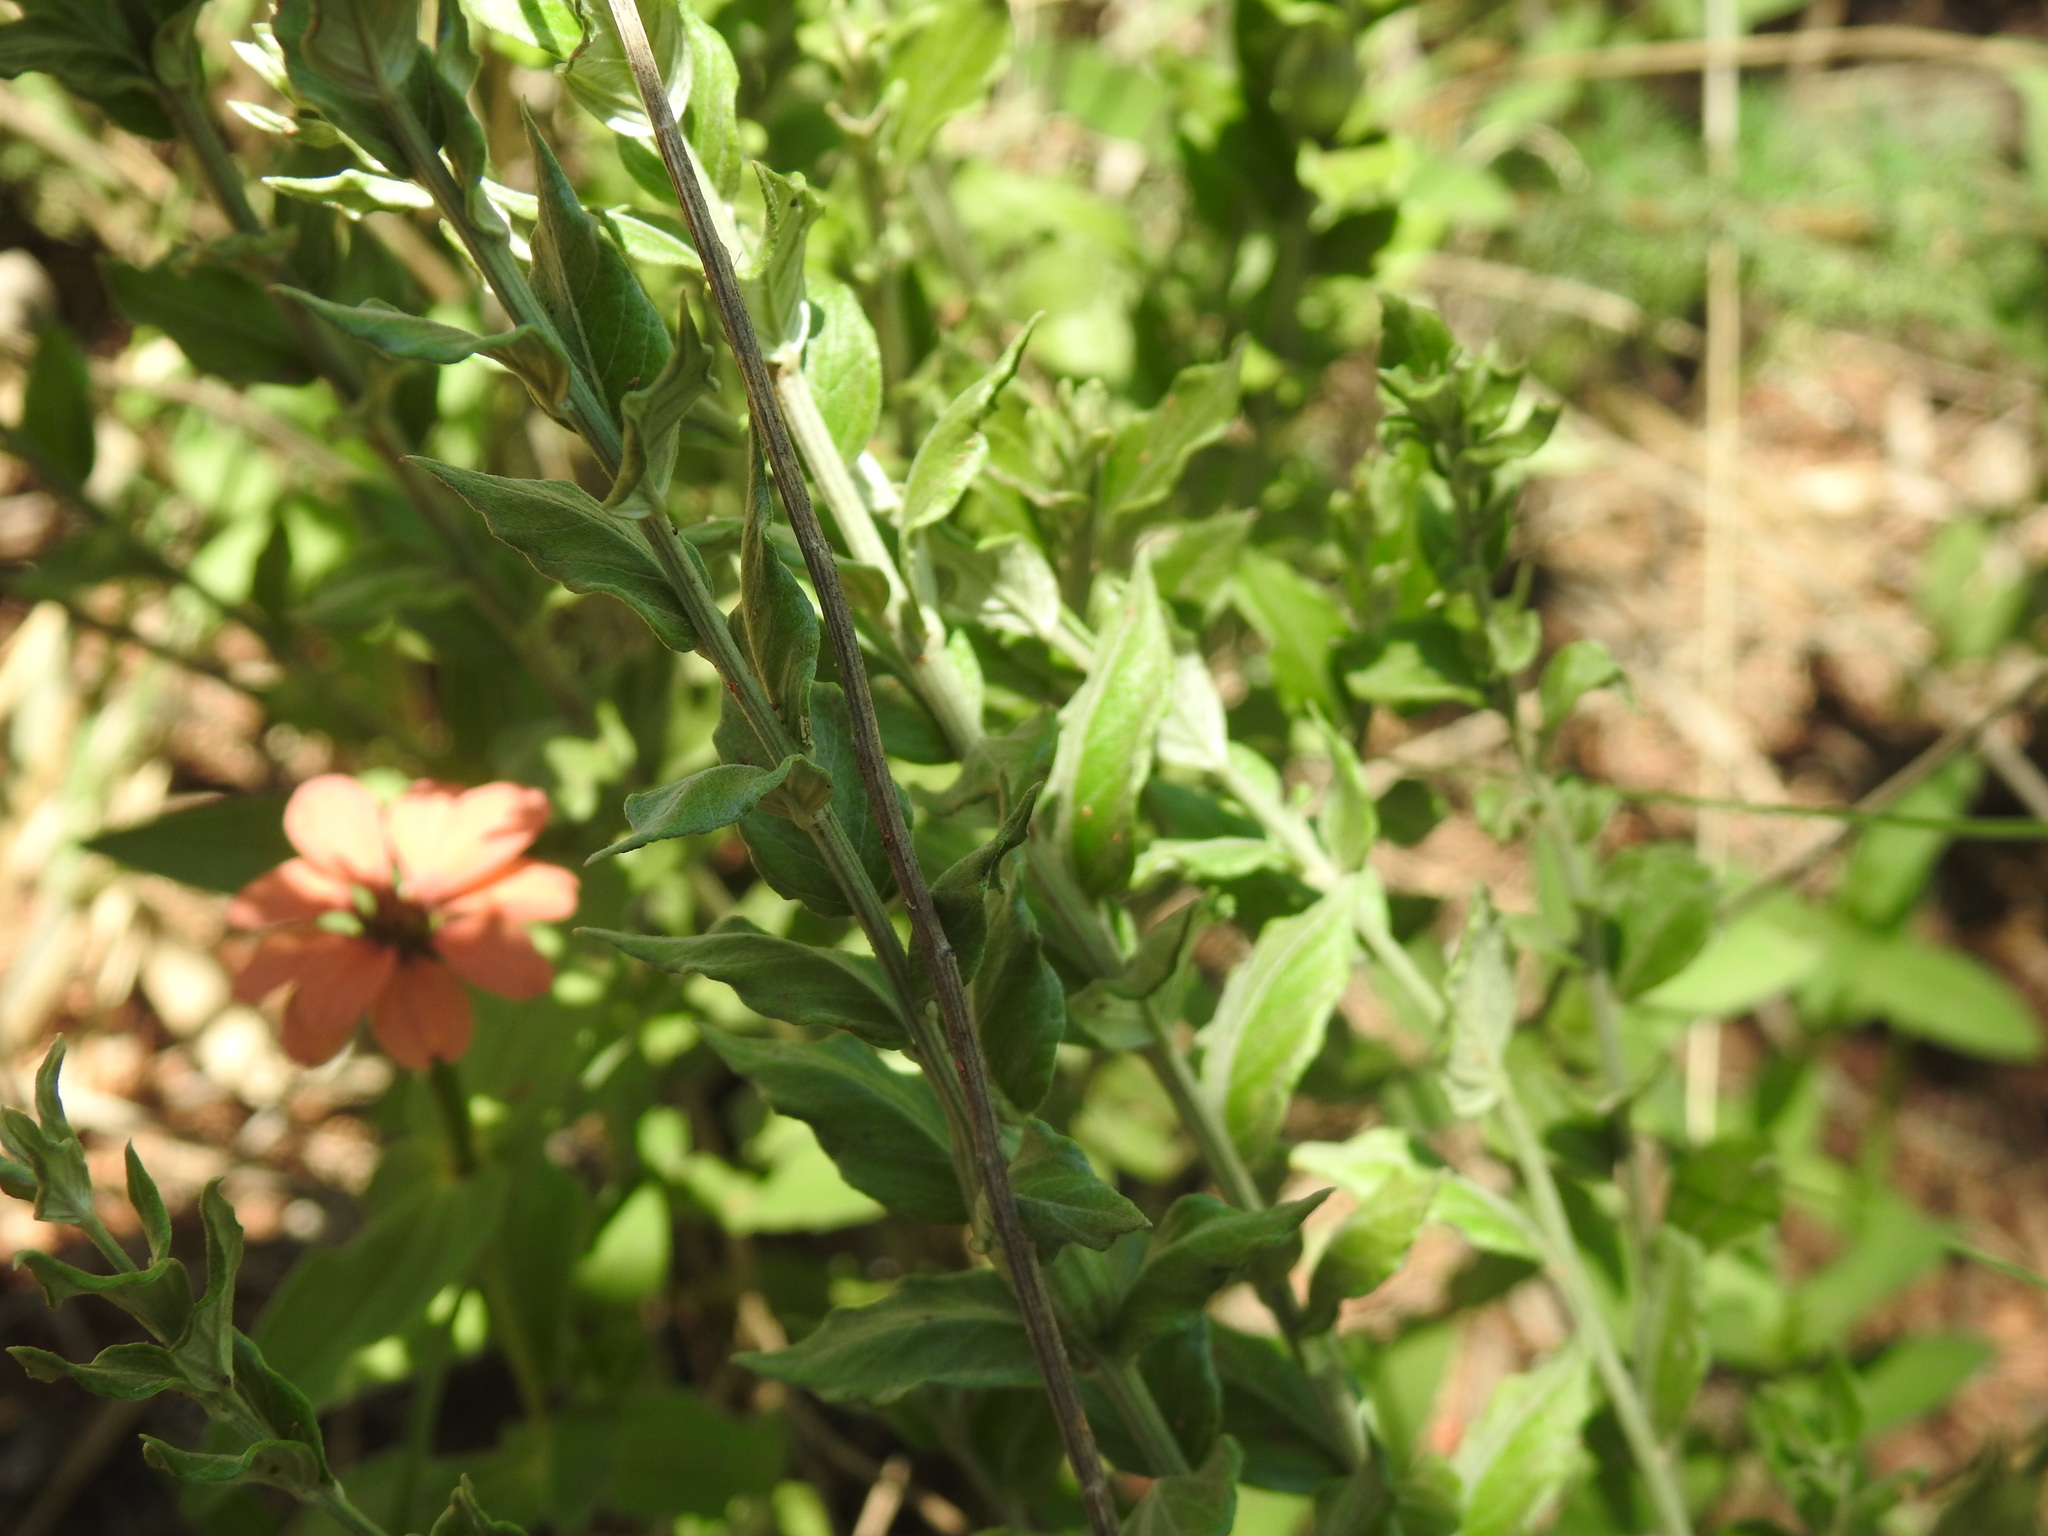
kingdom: Plantae
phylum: Tracheophyta
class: Magnoliopsida
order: Asterales
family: Asteraceae
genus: Hilliardiella
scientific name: Hilliardiella oligocephala
